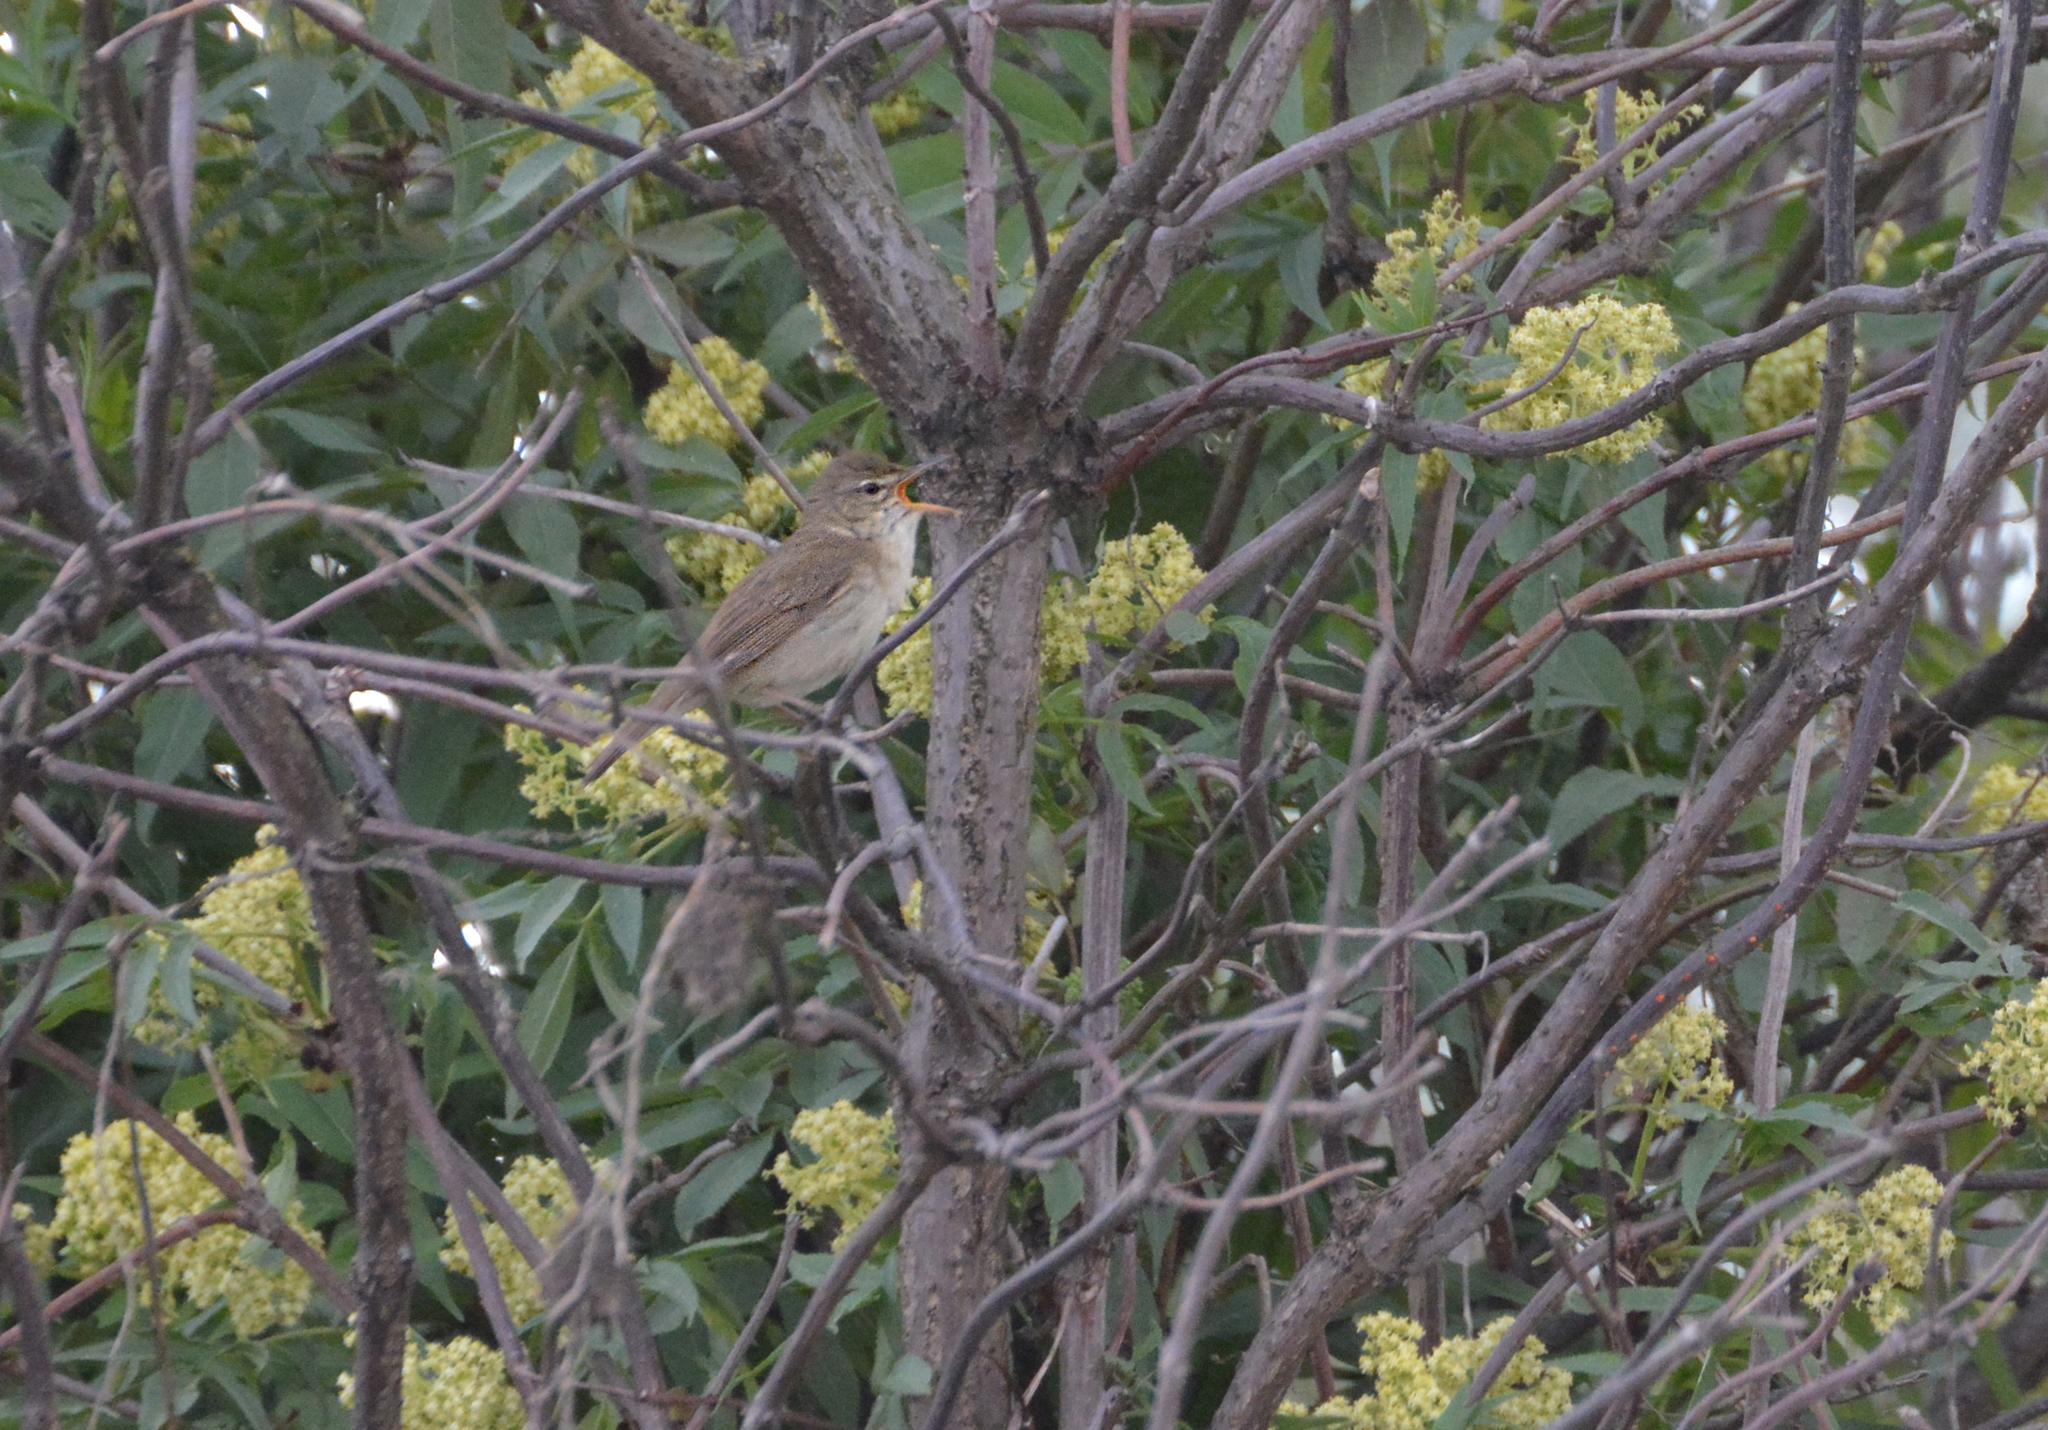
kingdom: Animalia
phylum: Chordata
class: Aves
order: Passeriformes
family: Acrocephalidae
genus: Acrocephalus
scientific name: Acrocephalus dumetorum
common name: Blyth's reed warbler
